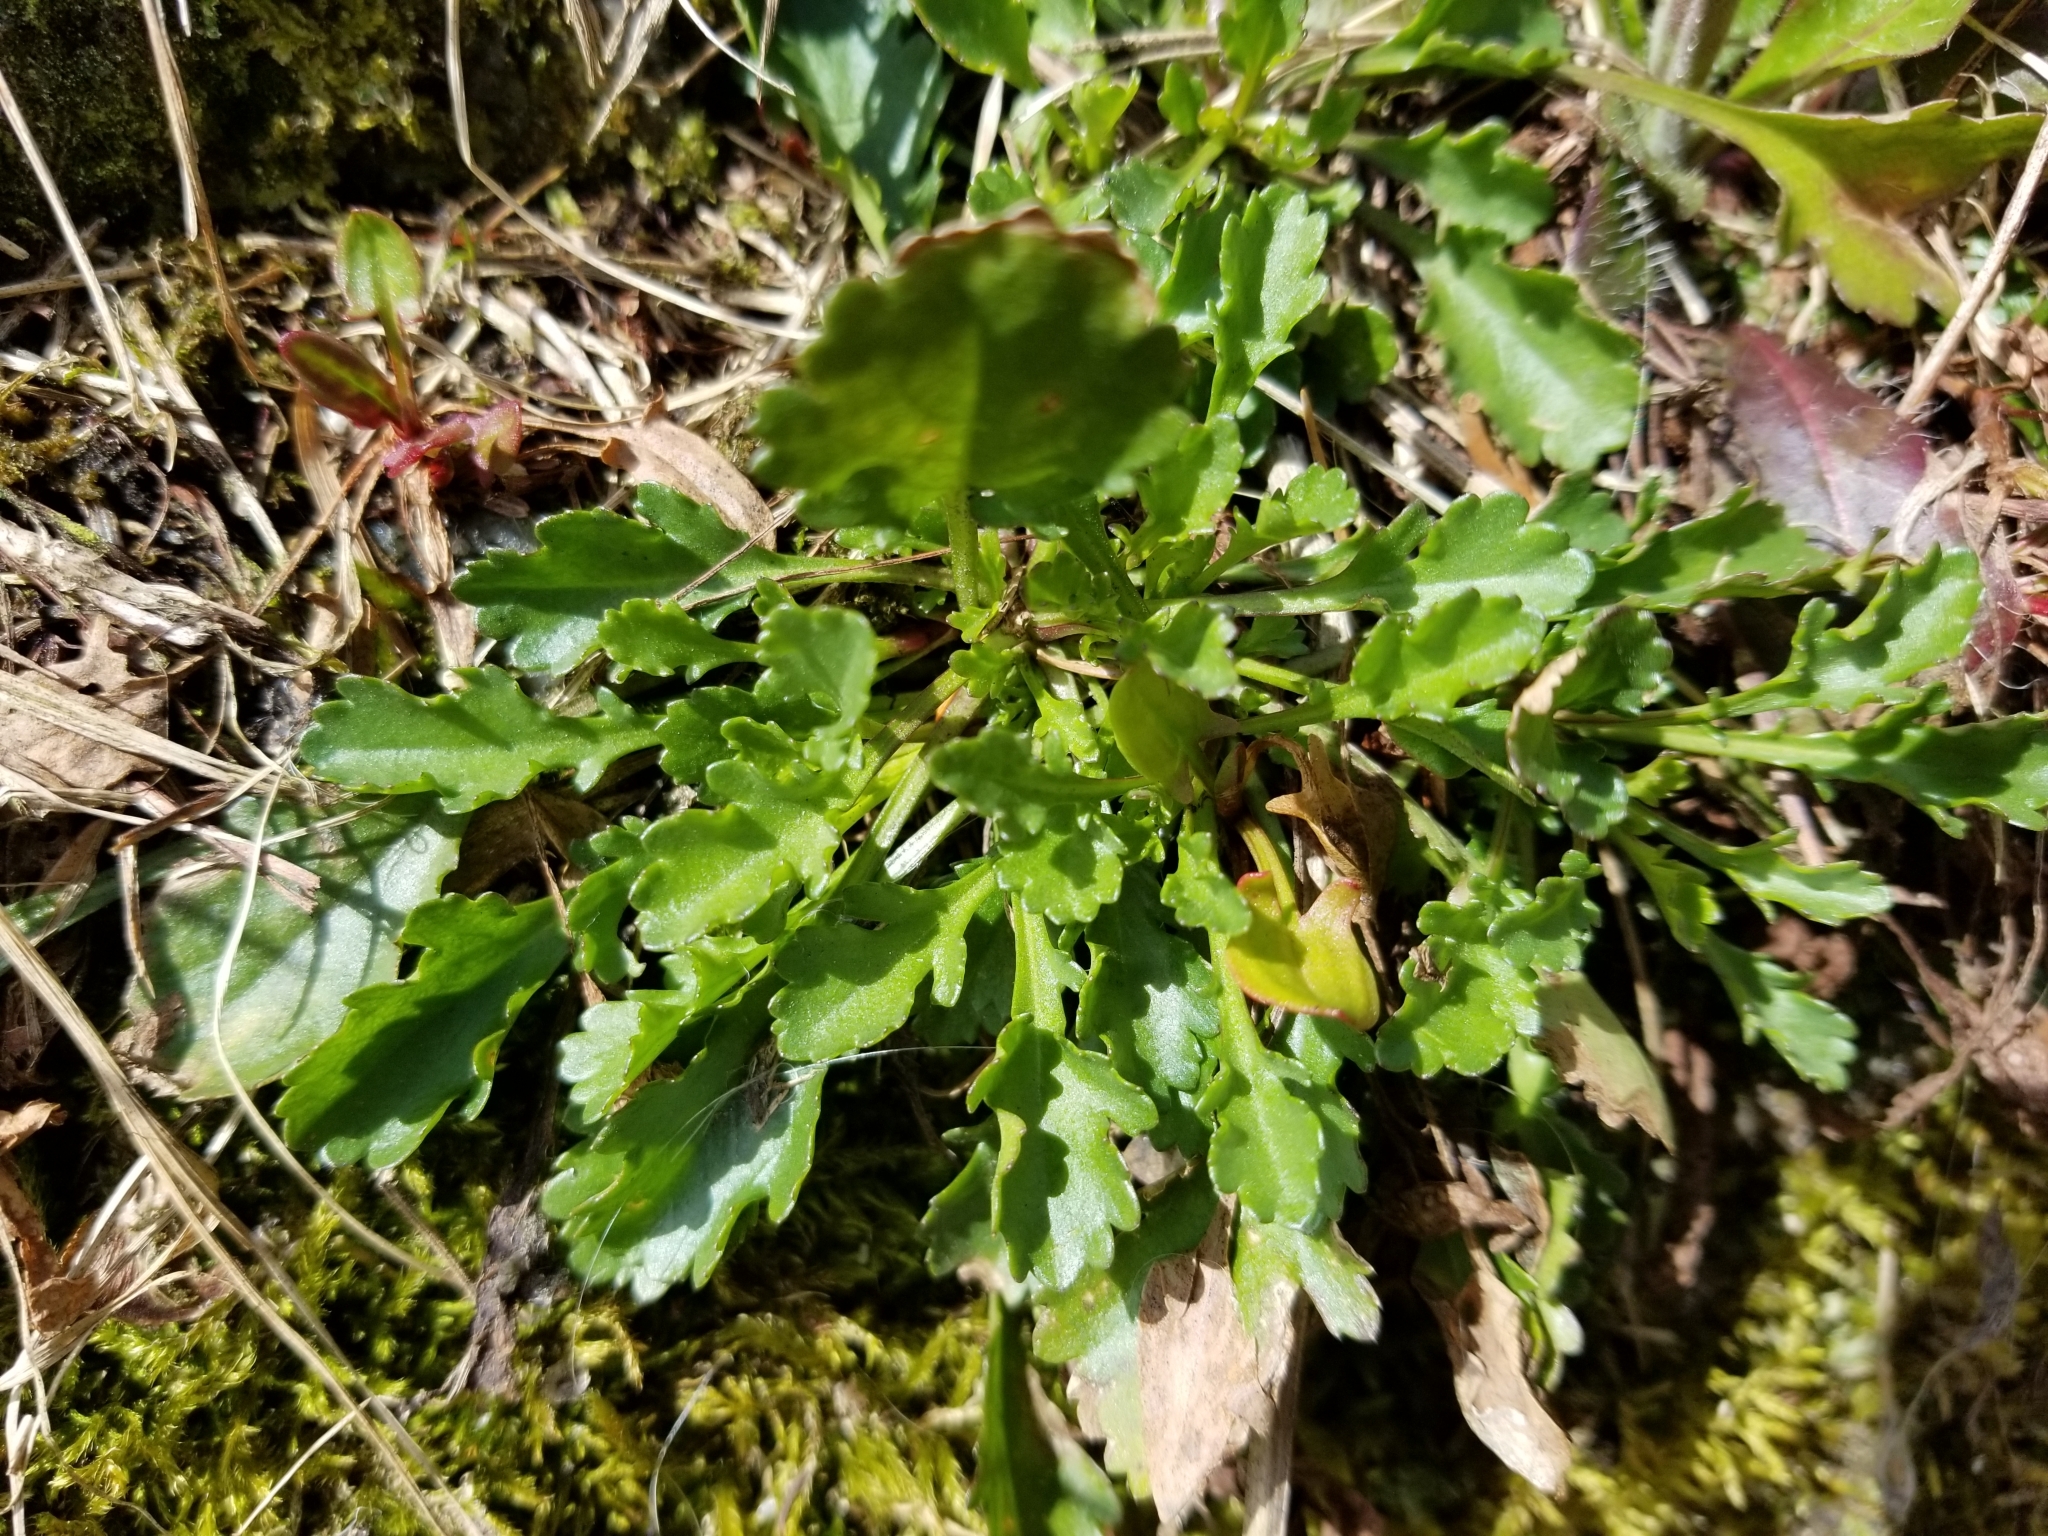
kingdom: Plantae
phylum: Tracheophyta
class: Magnoliopsida
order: Asterales
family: Asteraceae
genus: Leucanthemum
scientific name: Leucanthemum vulgare
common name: Oxeye daisy
